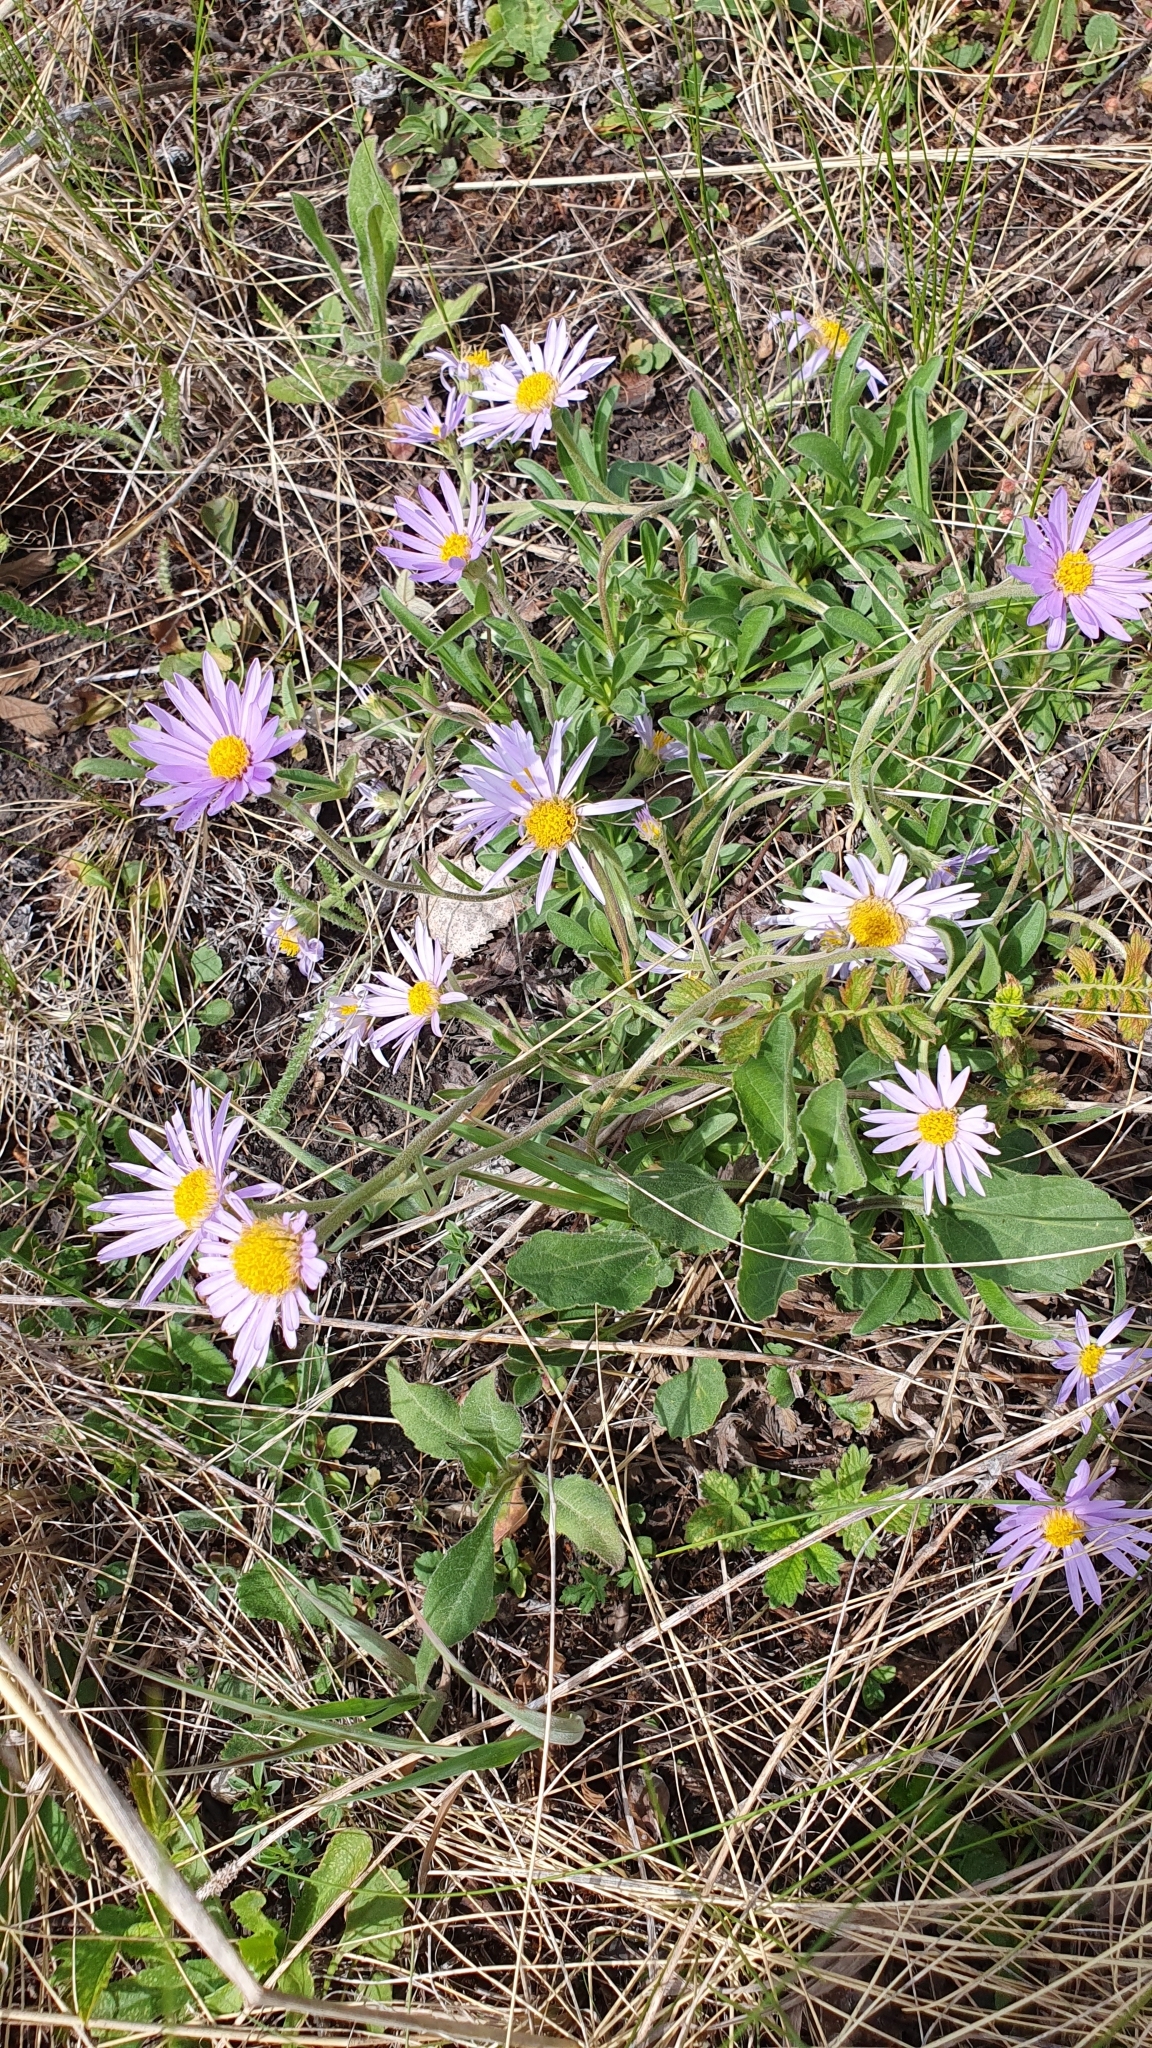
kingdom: Plantae
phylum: Tracheophyta
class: Magnoliopsida
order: Asterales
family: Asteraceae
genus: Aster
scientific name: Aster alpinus
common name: Alpine aster
